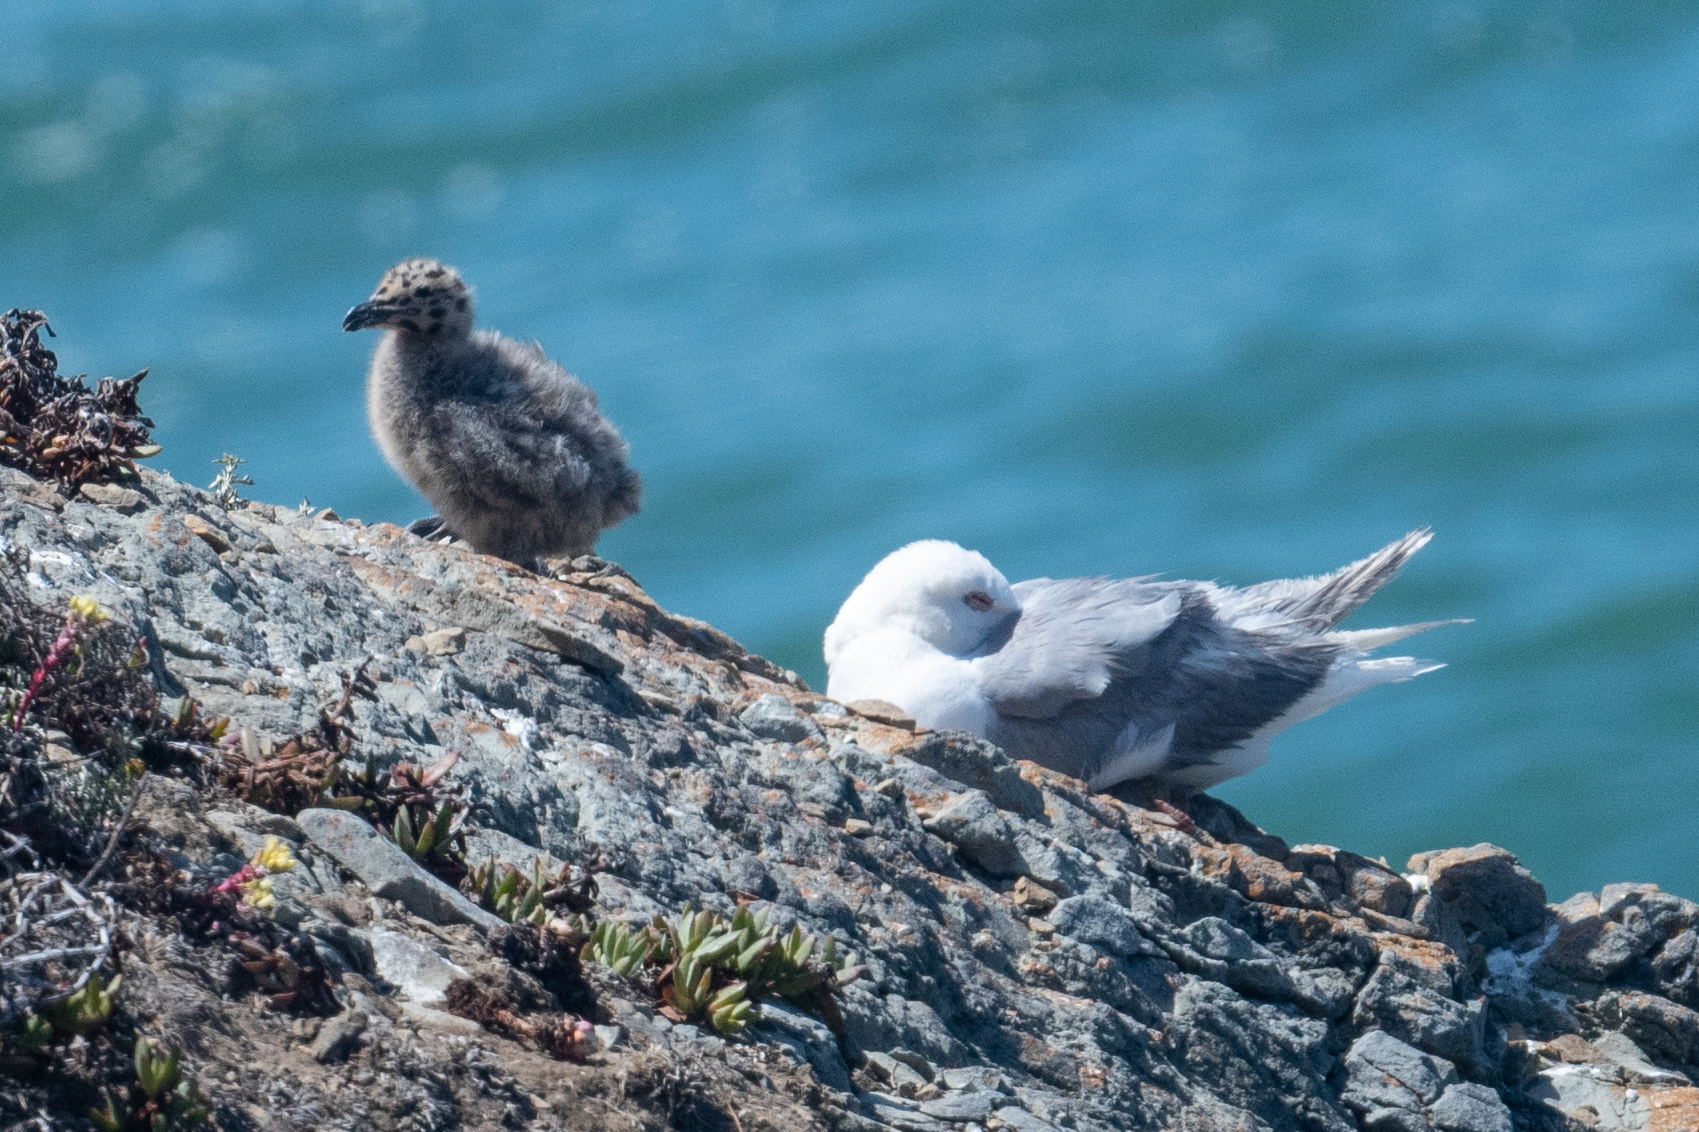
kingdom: Animalia
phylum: Chordata
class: Aves
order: Charadriiformes
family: Laridae
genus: Larus
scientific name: Larus occidentalis
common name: Western gull
